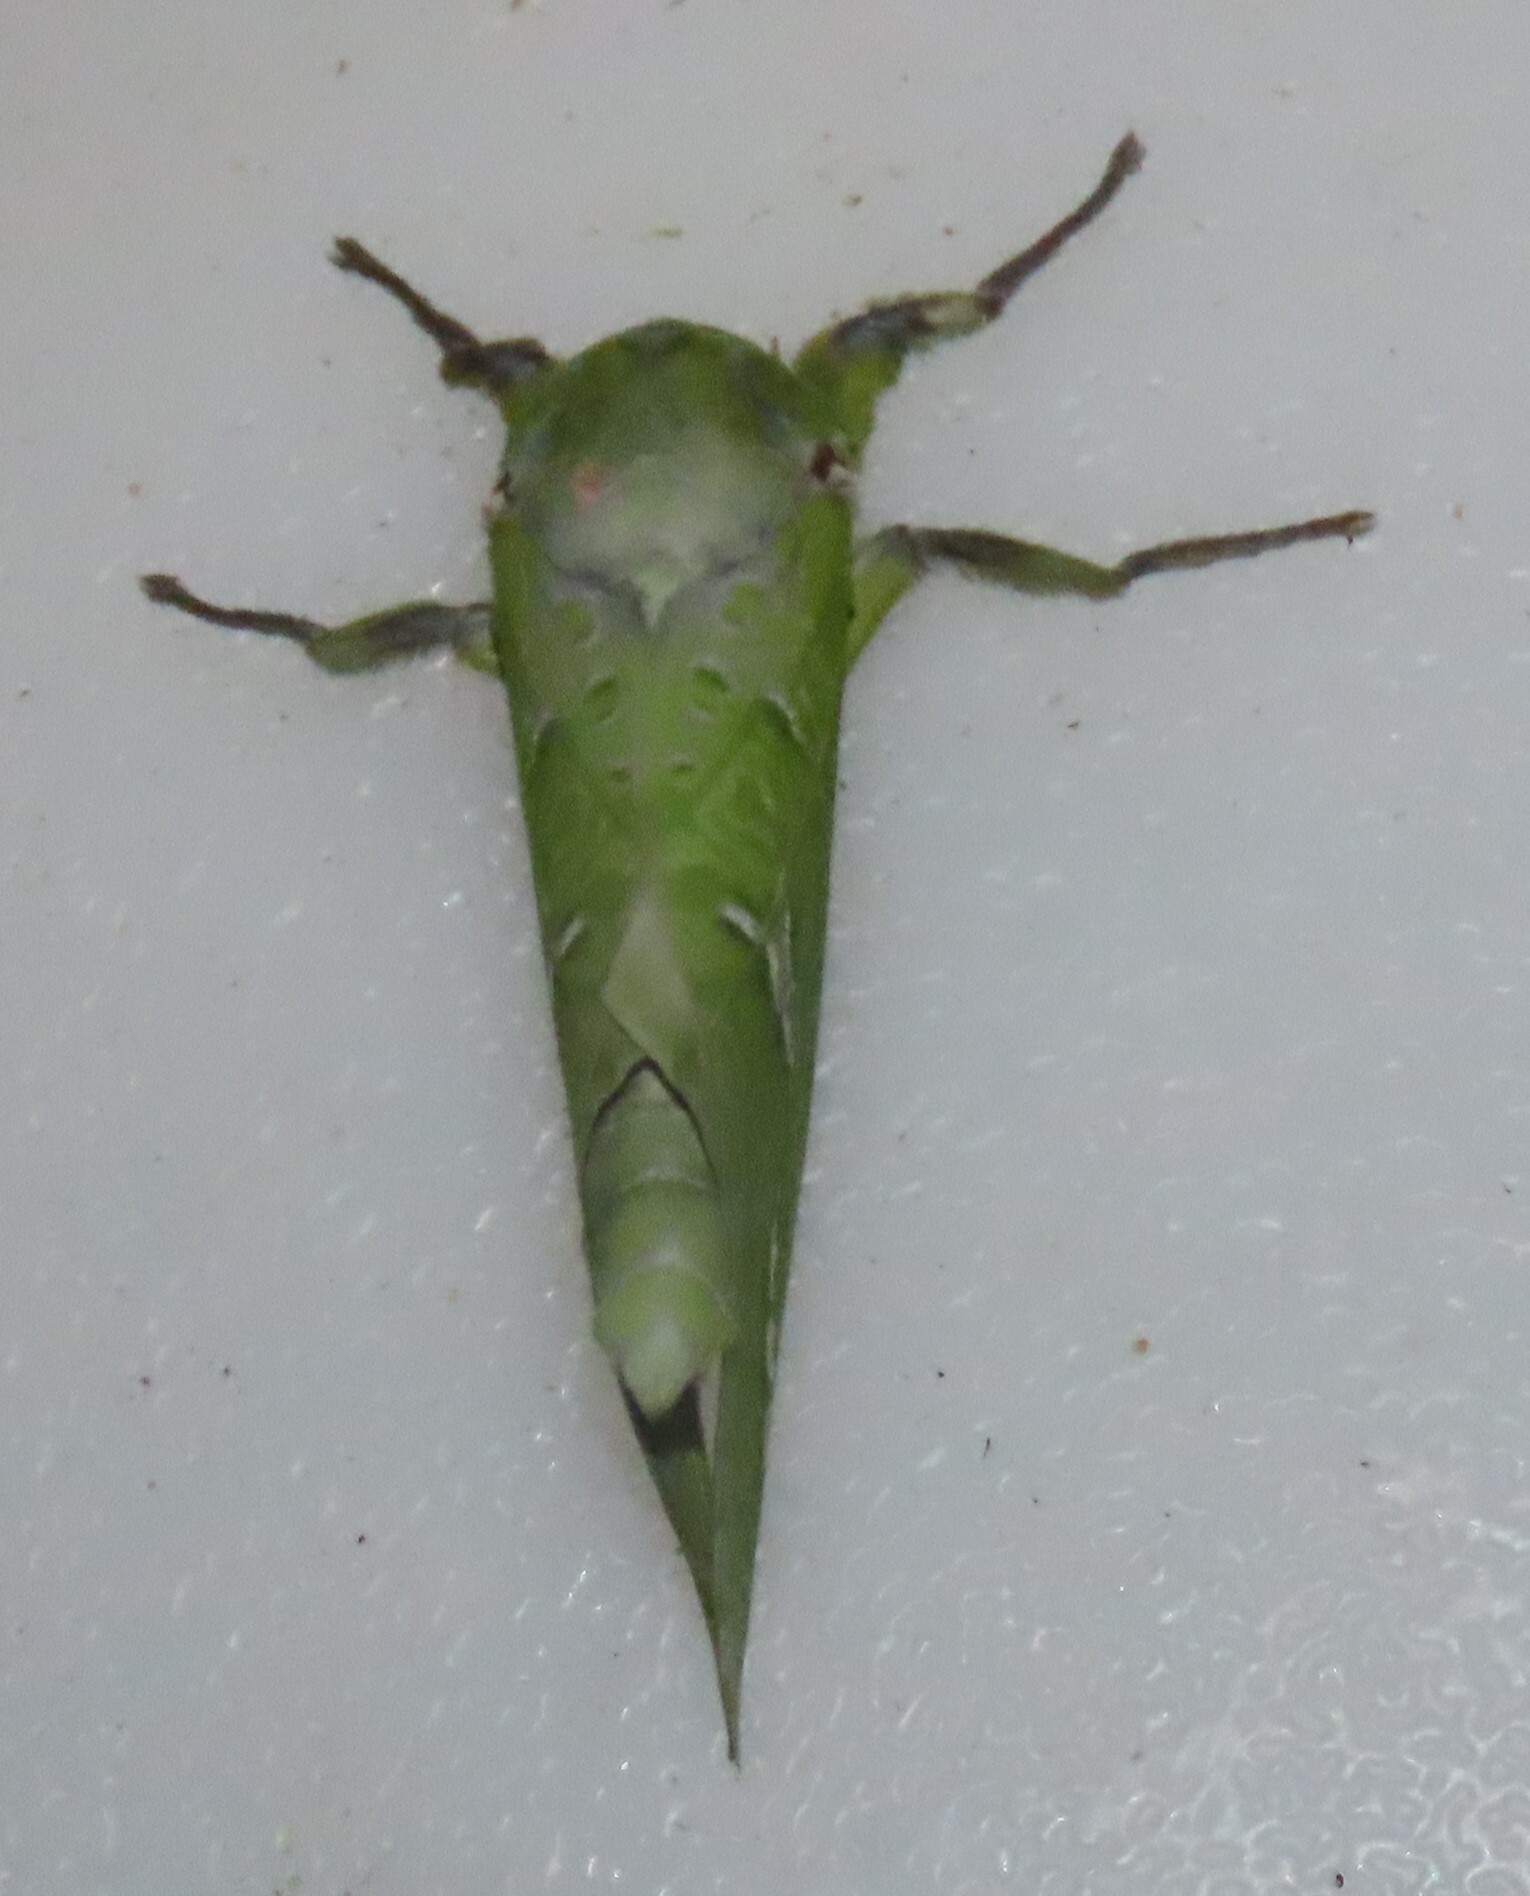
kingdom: Animalia
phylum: Arthropoda
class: Insecta
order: Lepidoptera
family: Hepialidae
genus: Aenetus
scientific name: Aenetus virescens
